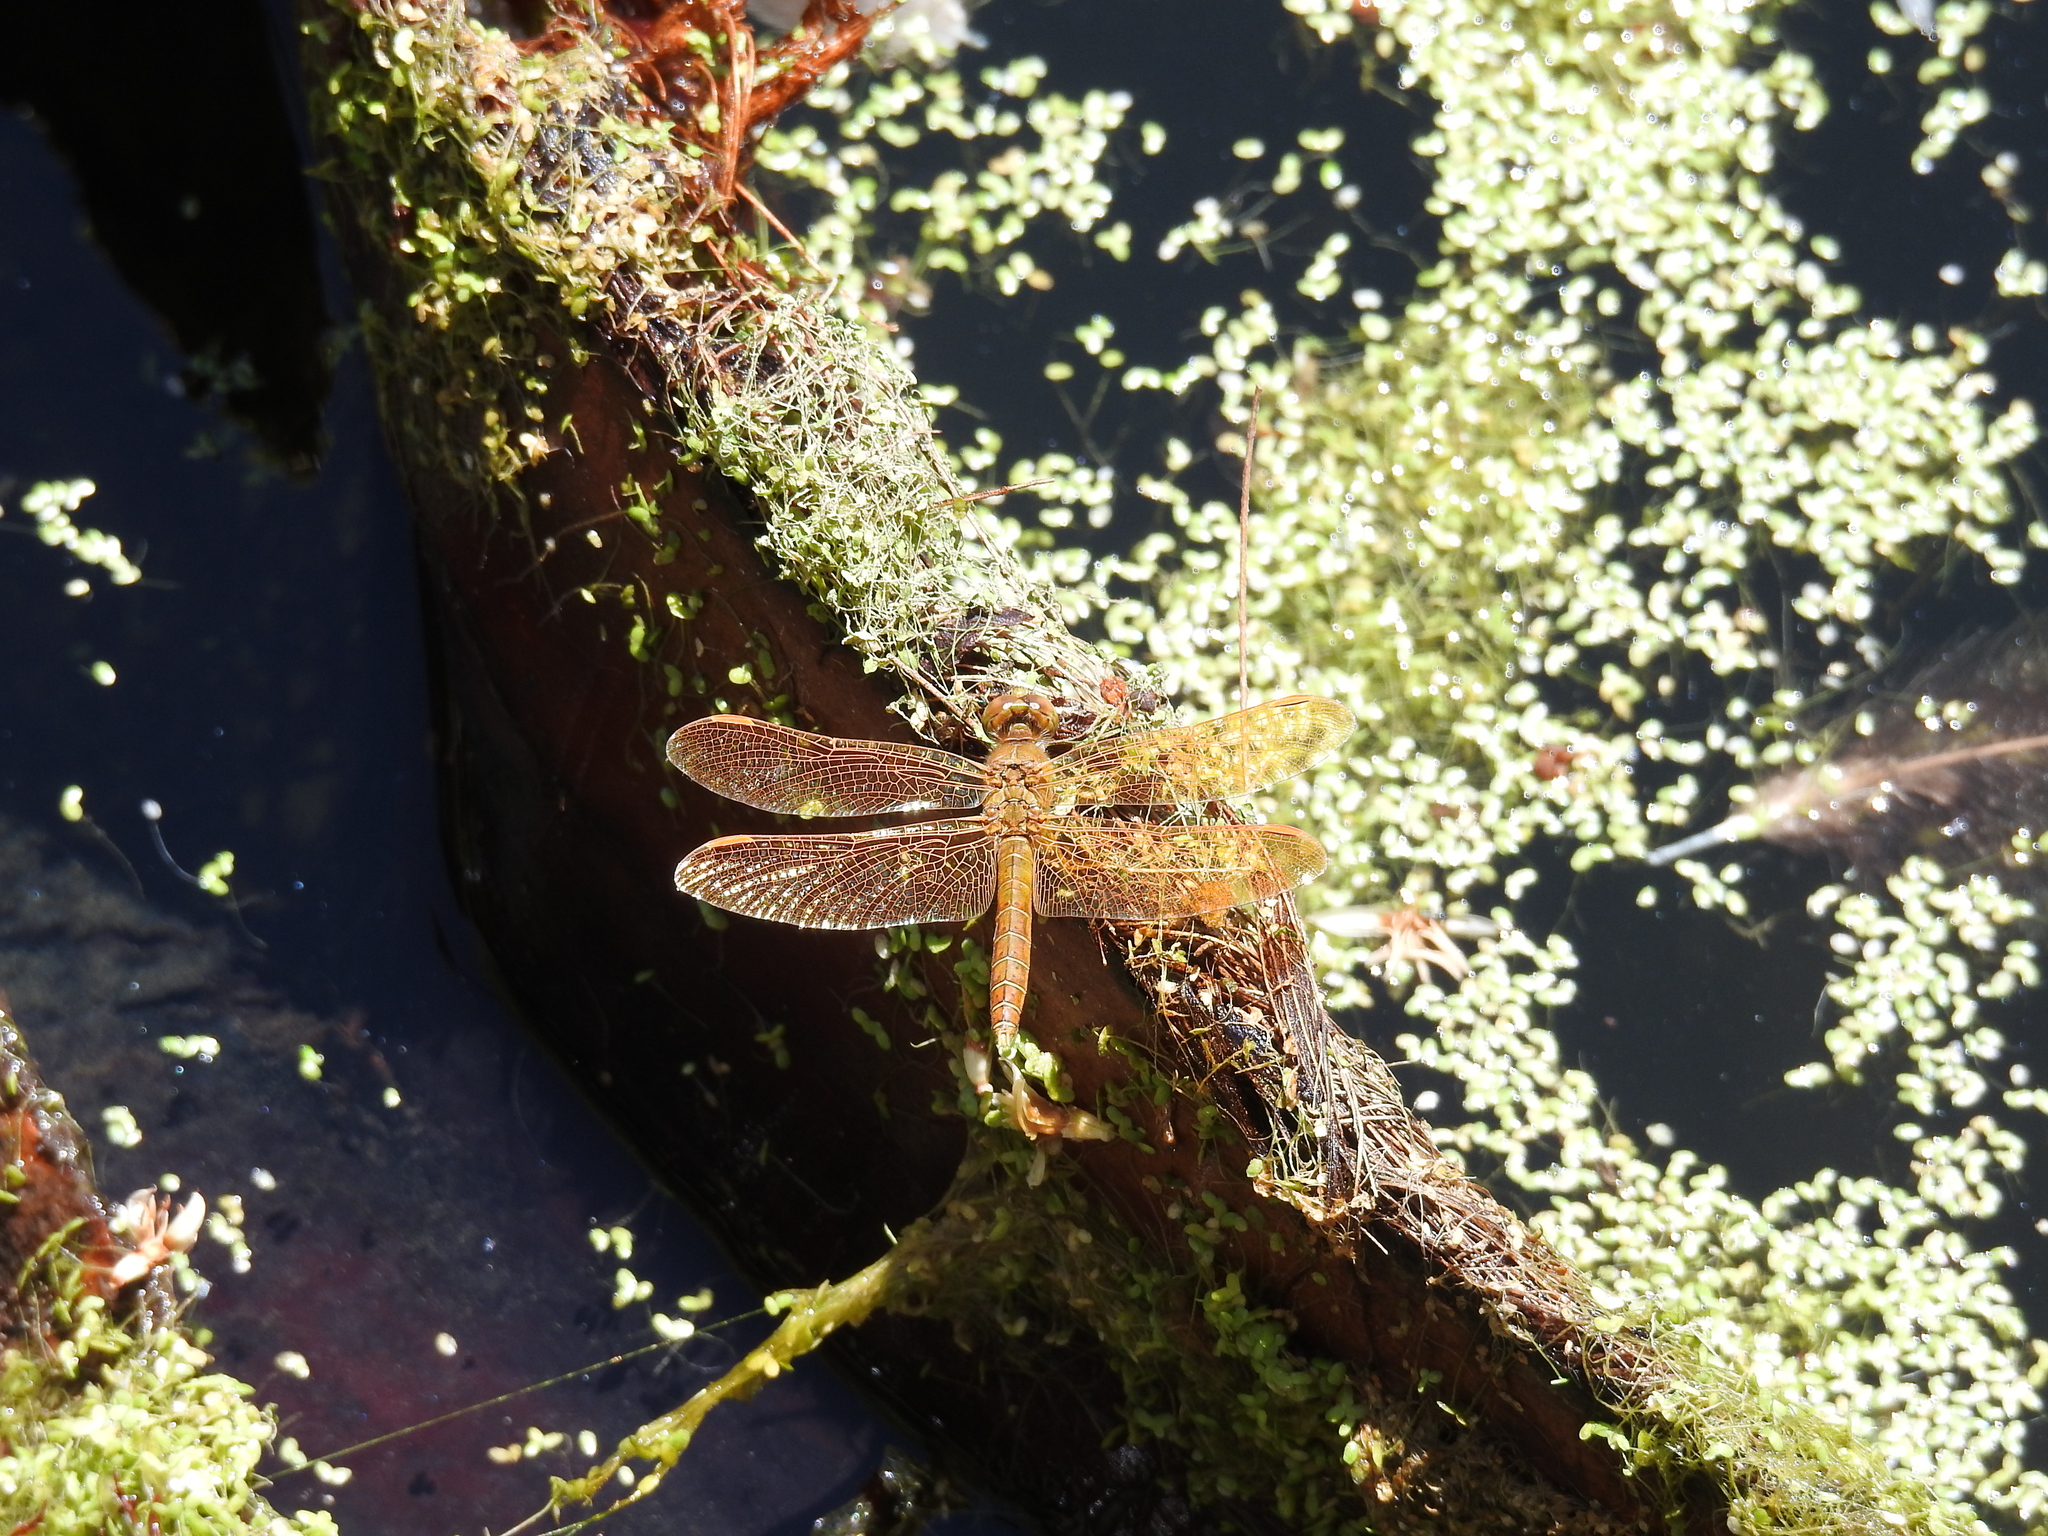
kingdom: Animalia
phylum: Arthropoda
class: Insecta
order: Odonata
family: Libellulidae
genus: Perithemis
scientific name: Perithemis intensa
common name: Mexican amberwing
